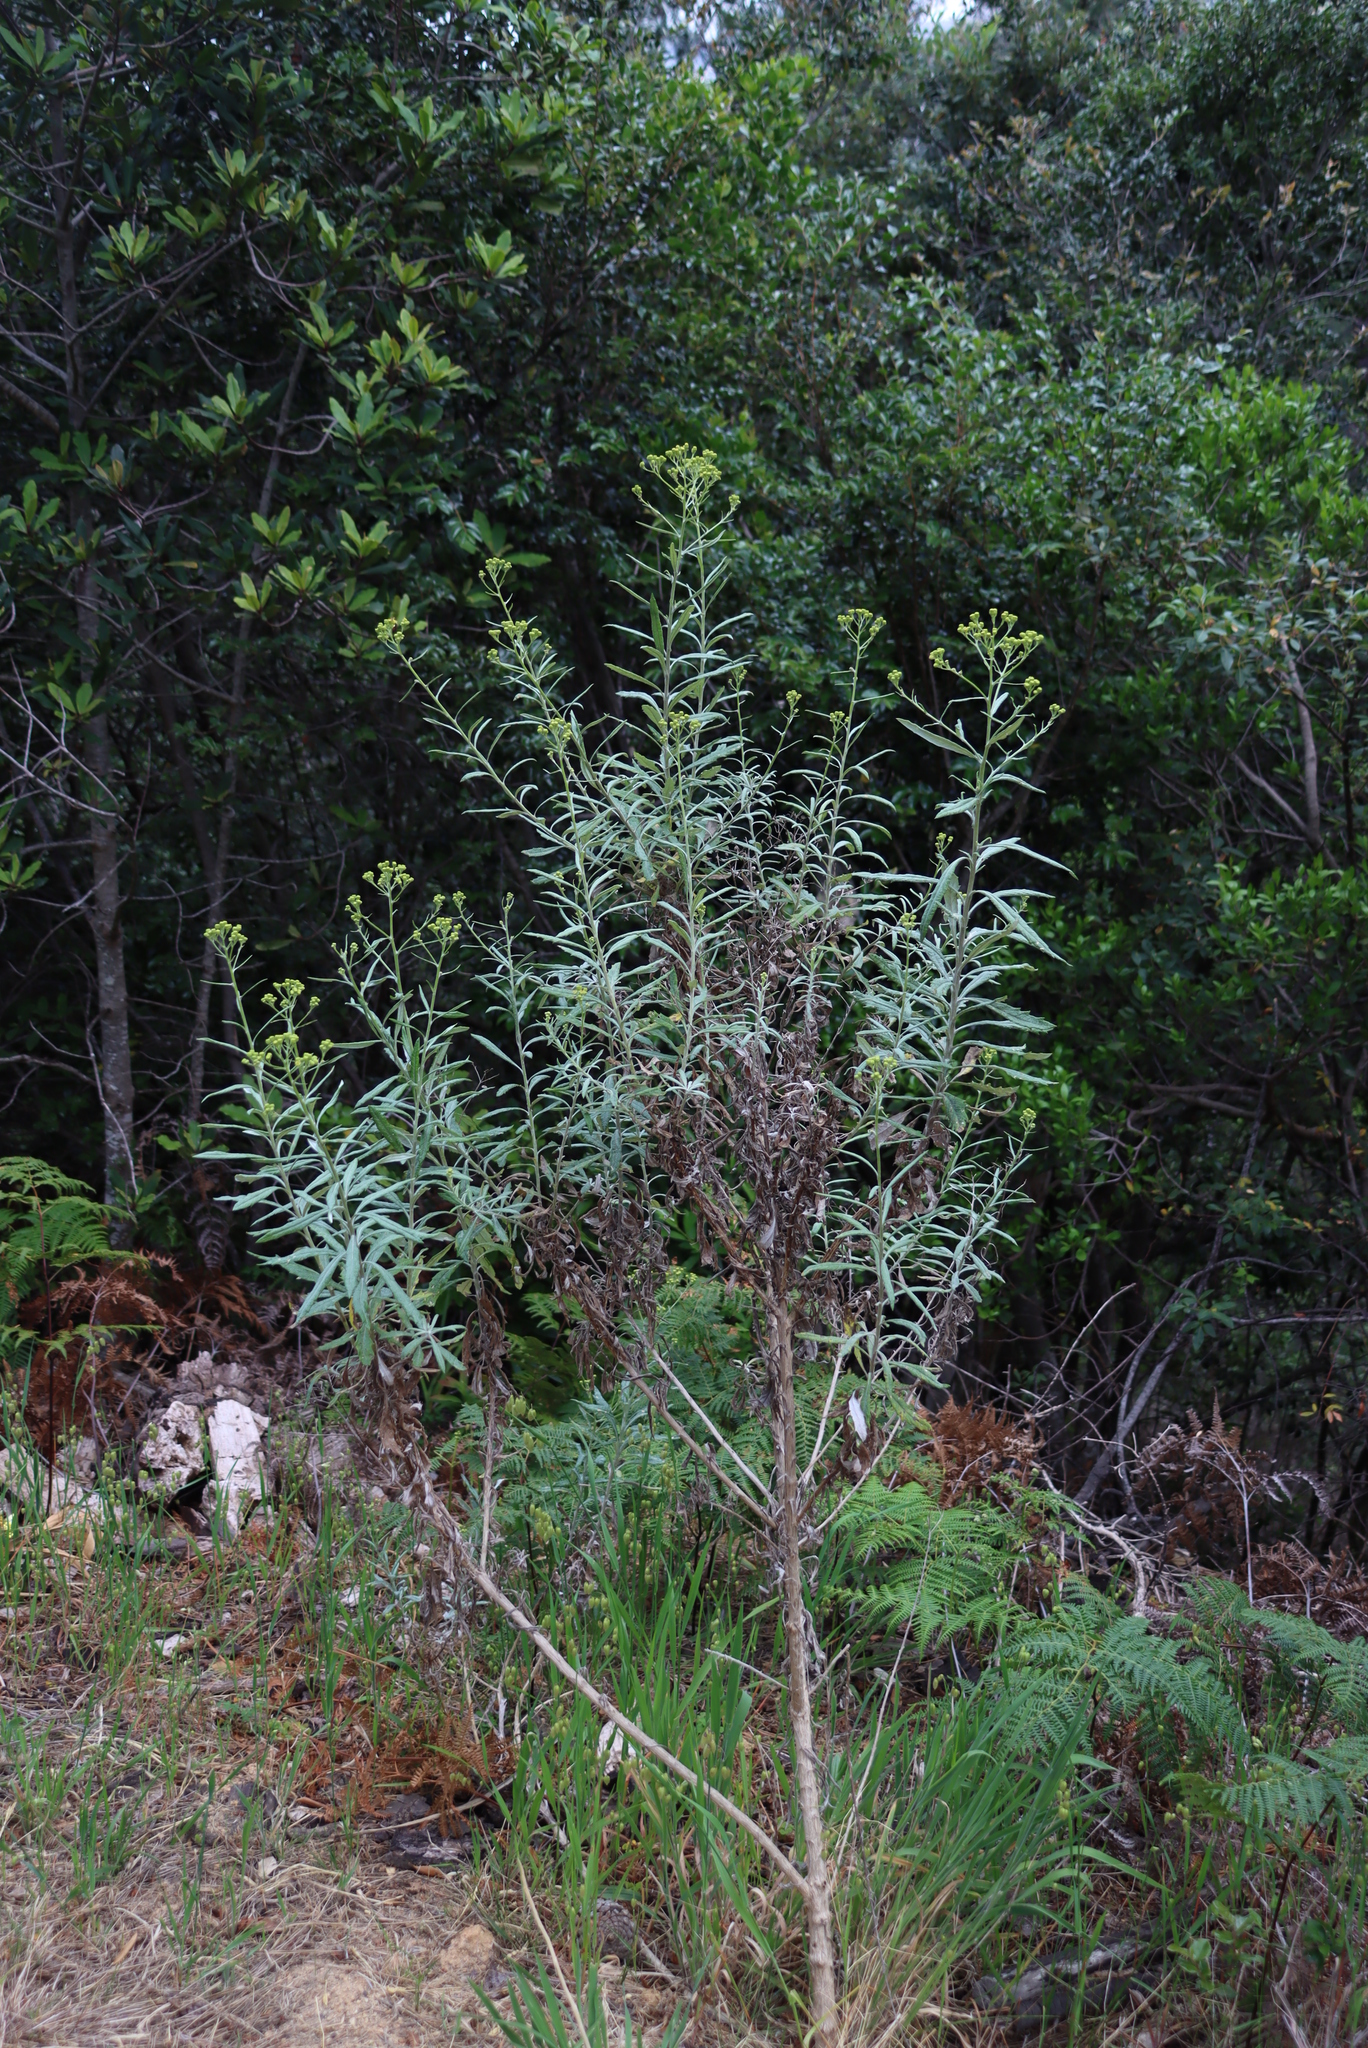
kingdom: Plantae
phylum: Tracheophyta
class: Magnoliopsida
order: Asterales
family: Asteraceae
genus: Senecio
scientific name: Senecio pterophorus
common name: Shoddy ragwort
